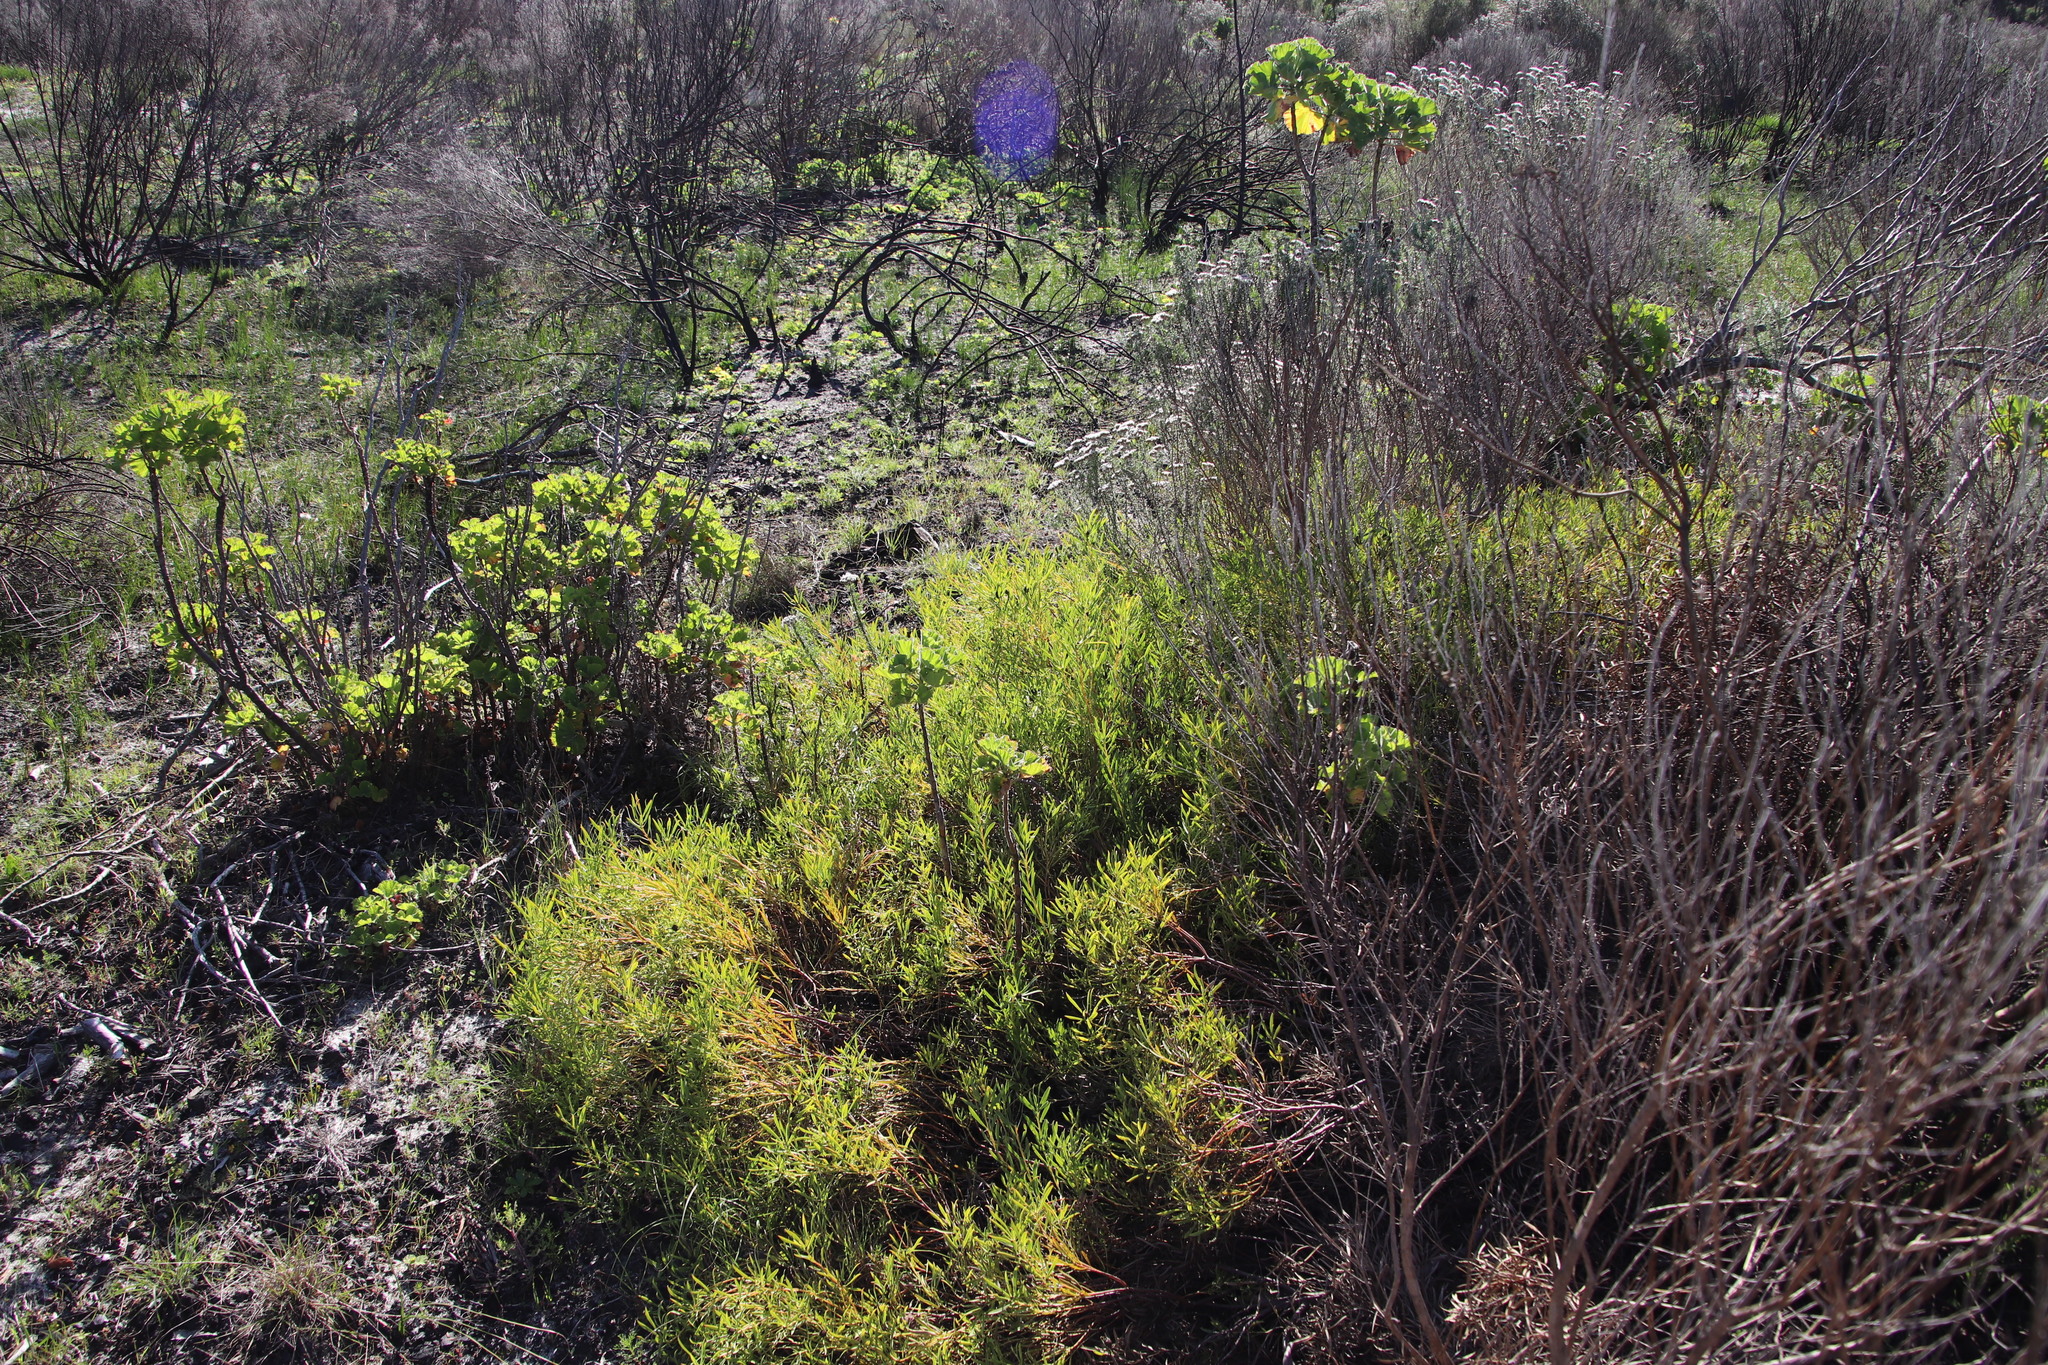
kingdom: Plantae
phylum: Tracheophyta
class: Magnoliopsida
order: Proteales
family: Proteaceae
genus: Leucadendron
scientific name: Leucadendron salignum
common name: Common sunshine conebush
